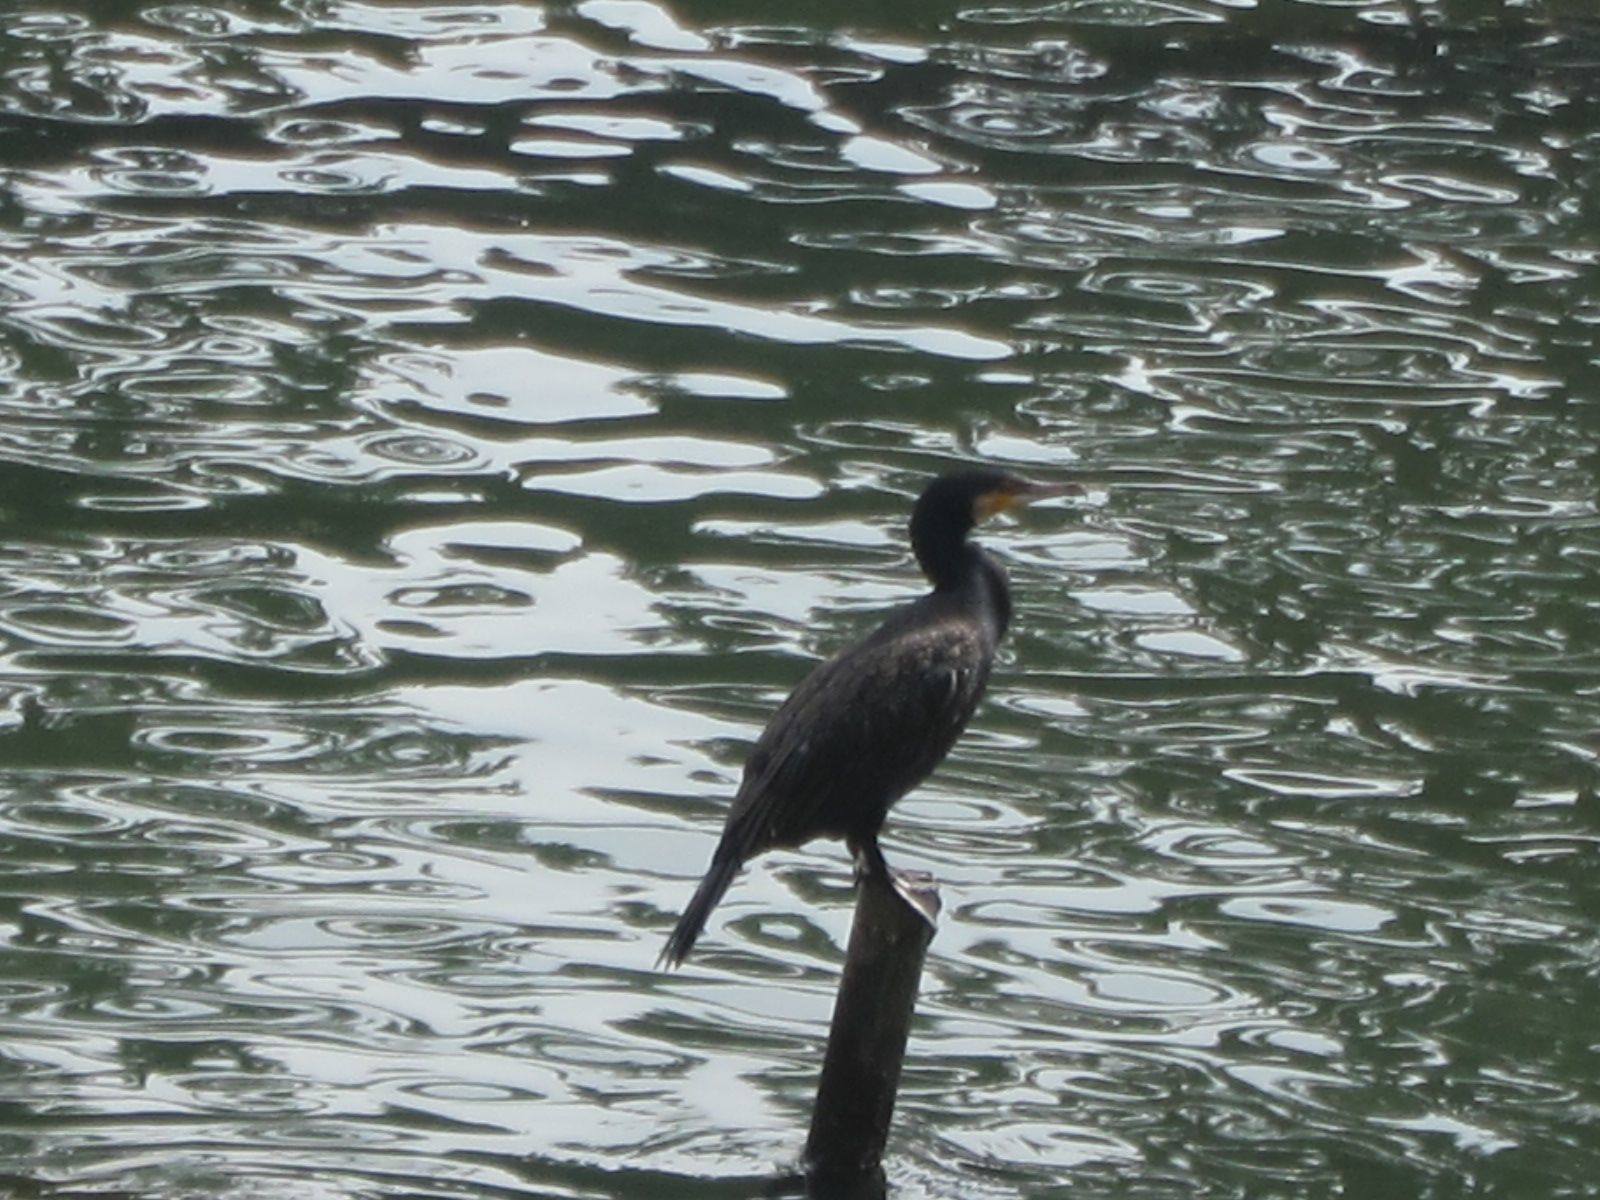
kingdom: Animalia
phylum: Chordata
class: Aves
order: Suliformes
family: Phalacrocoracidae
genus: Phalacrocorax
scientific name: Phalacrocorax carbo
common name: Great cormorant
